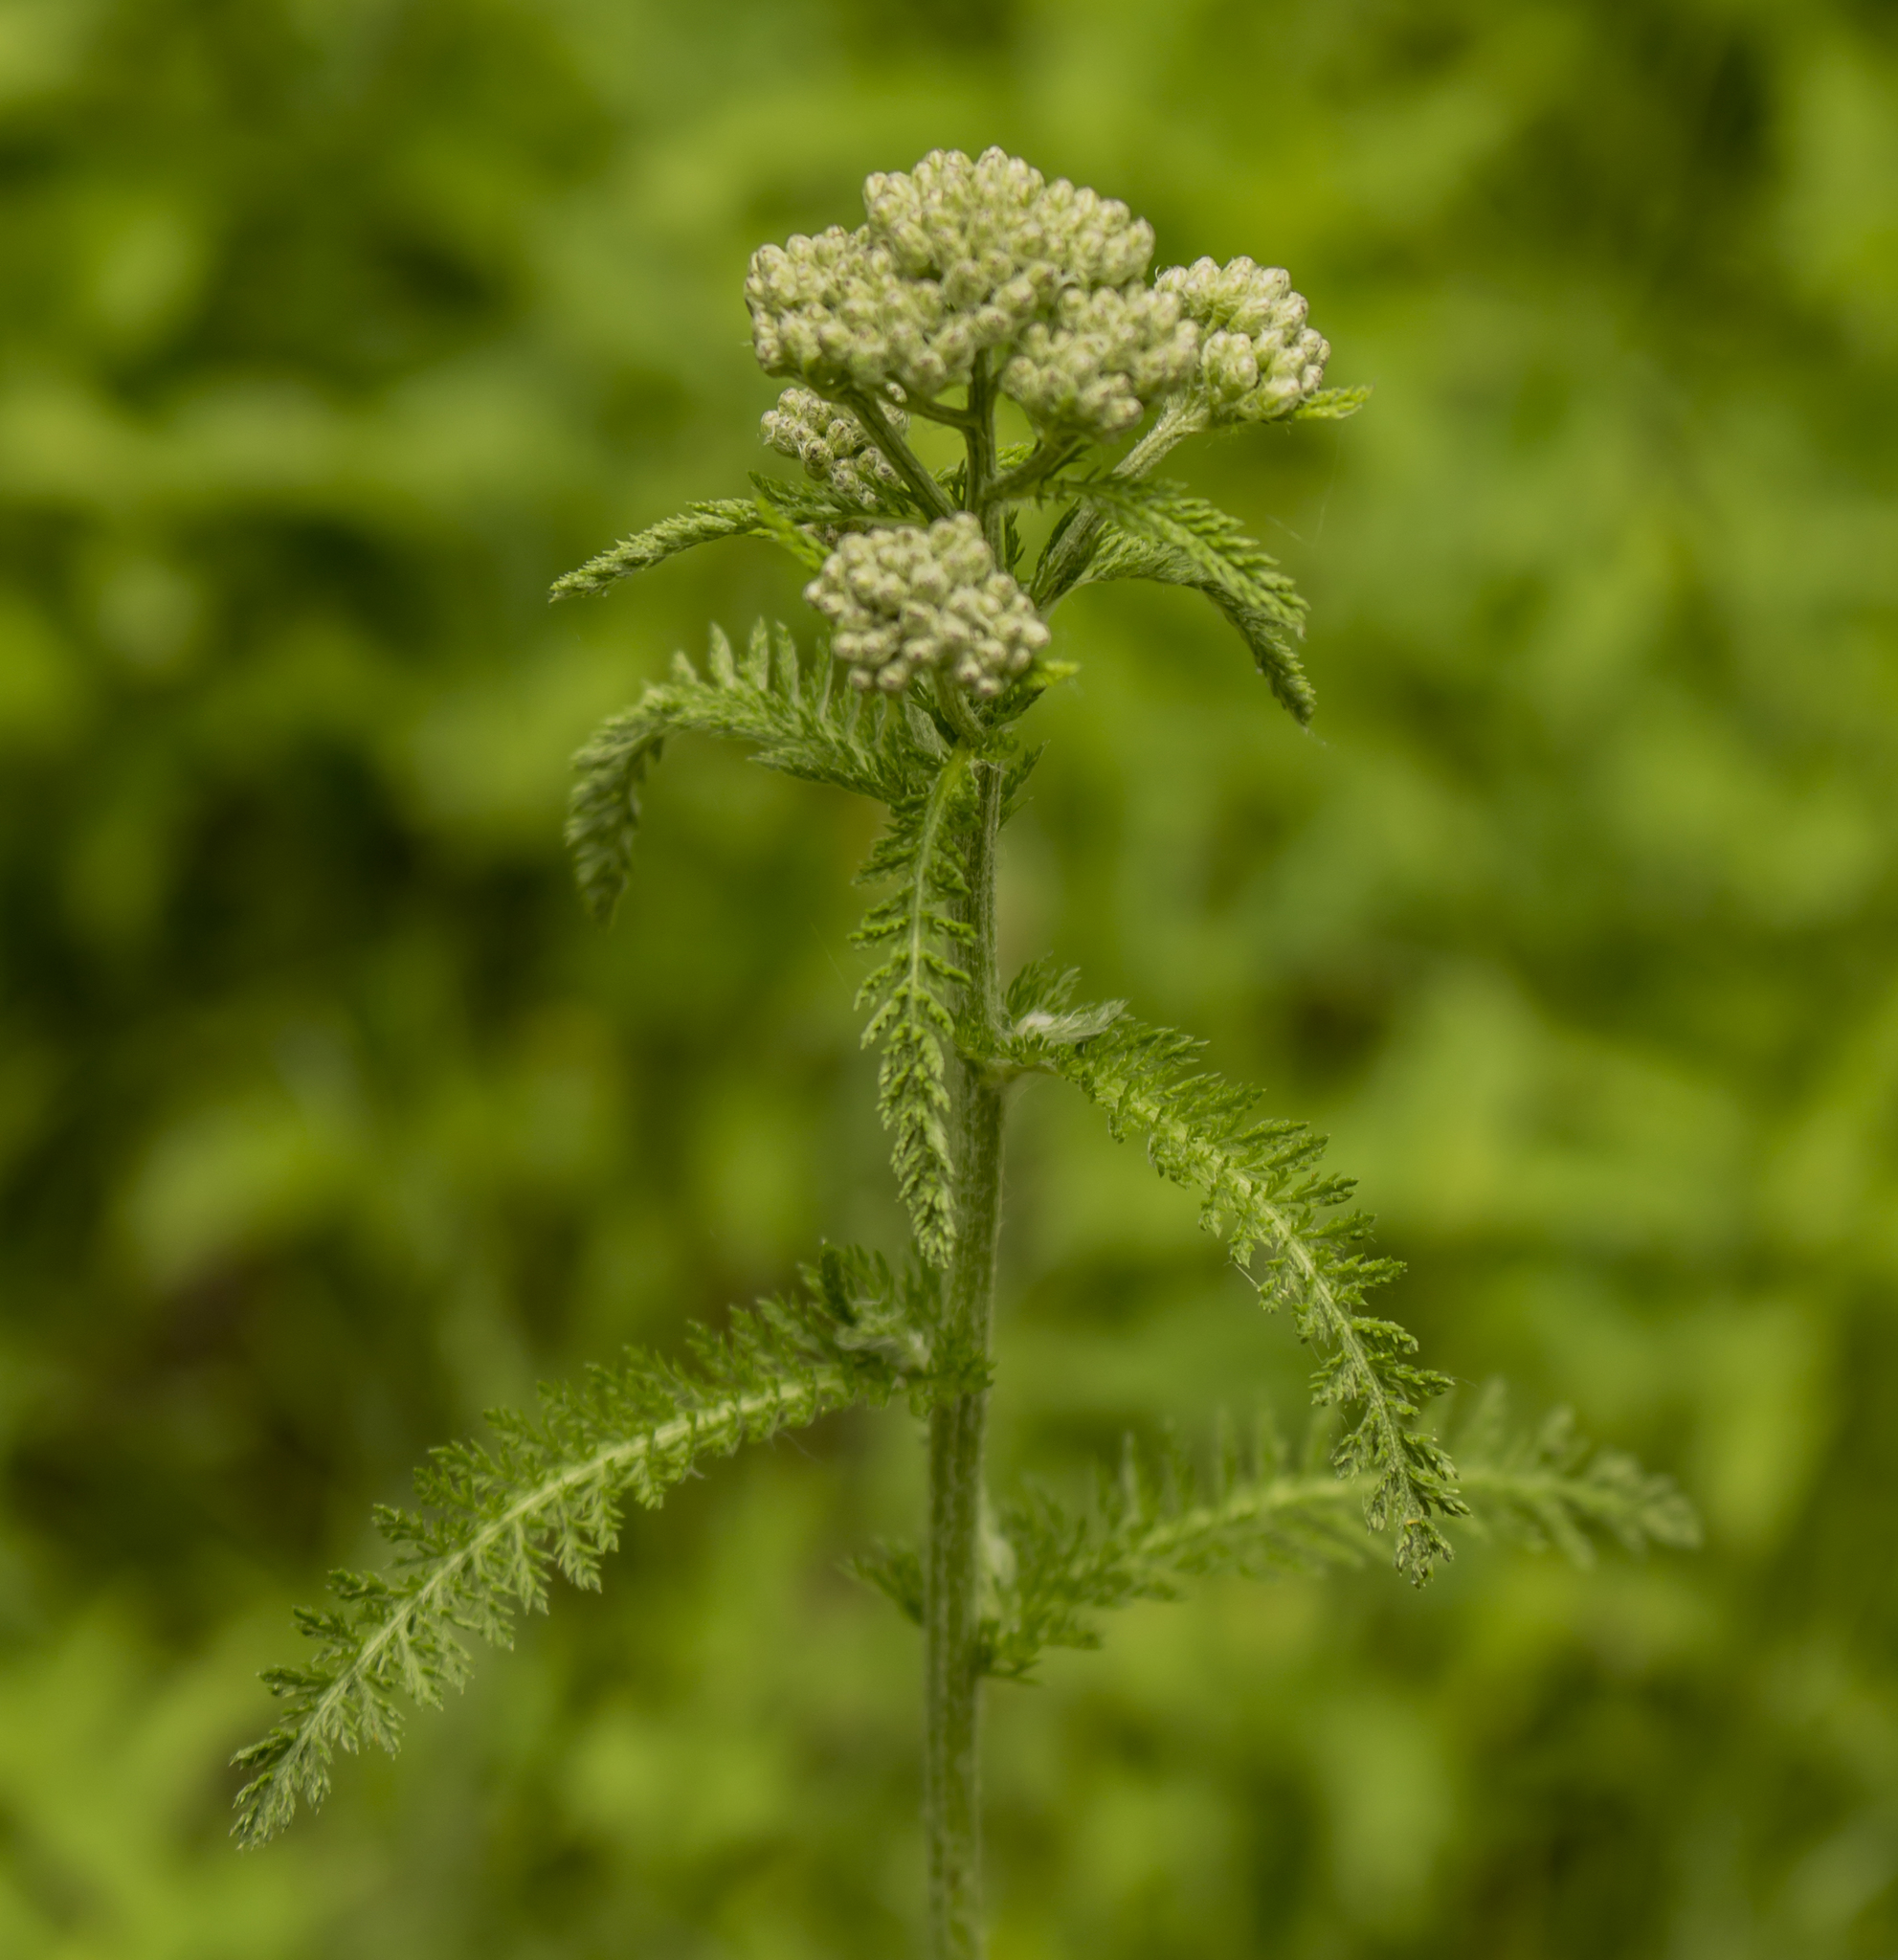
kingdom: Plantae
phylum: Tracheophyta
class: Magnoliopsida
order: Asterales
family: Asteraceae
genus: Achillea
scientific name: Achillea millefolium
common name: Yarrow
